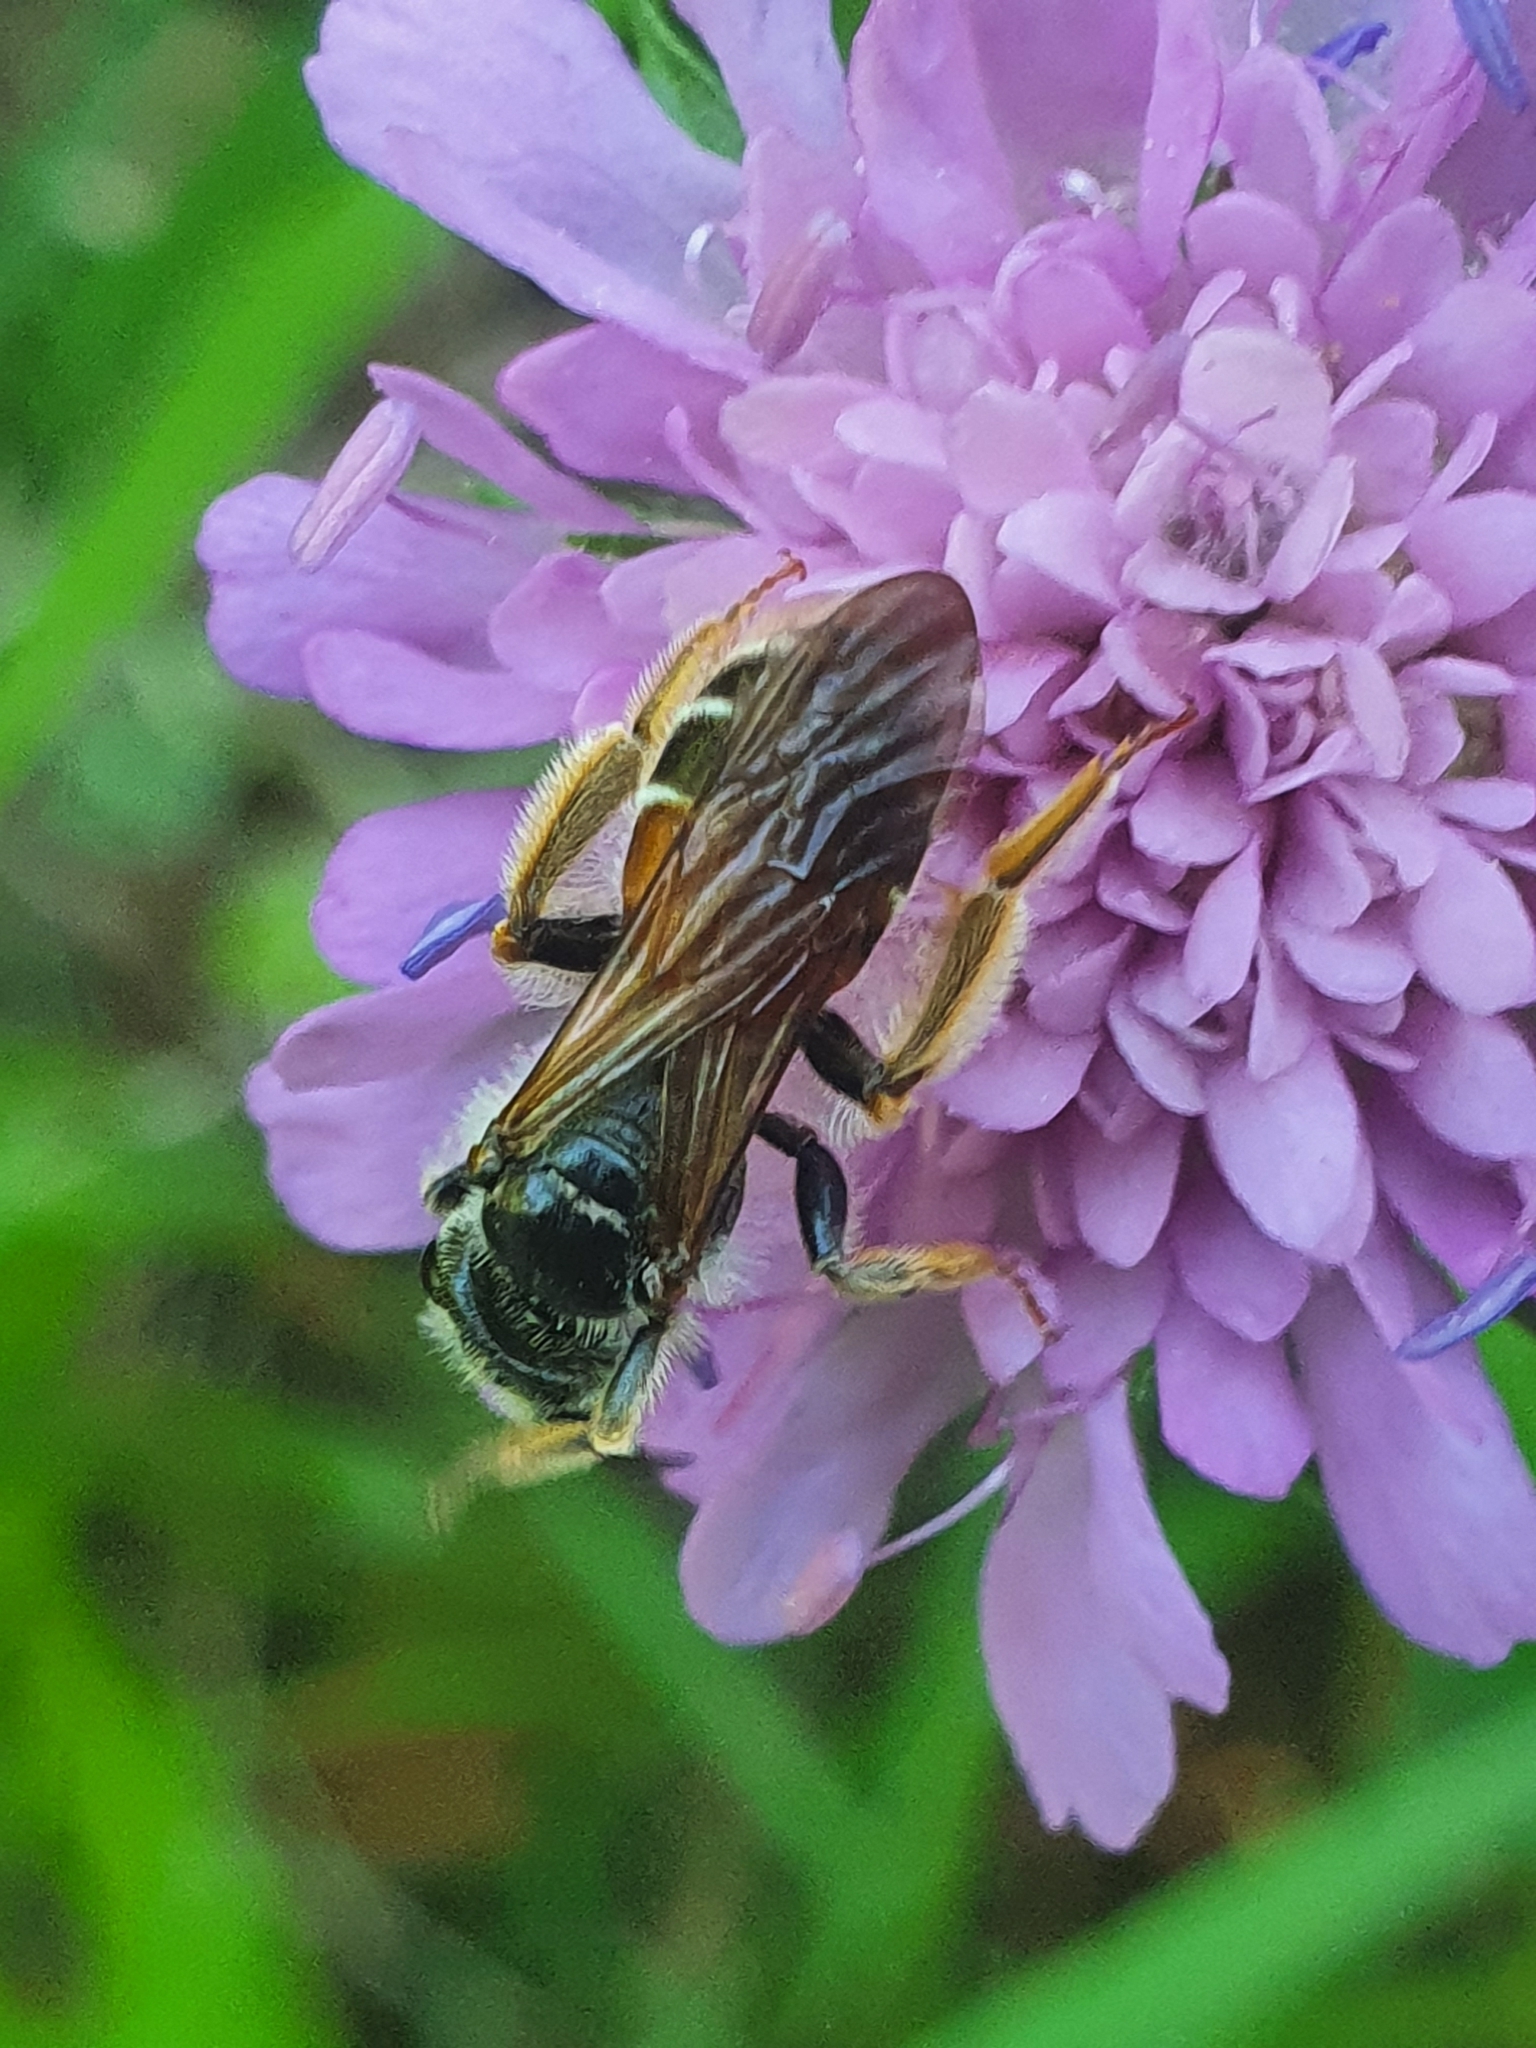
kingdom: Animalia
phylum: Arthropoda
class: Insecta
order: Hymenoptera
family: Andrenidae
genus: Andrena
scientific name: Andrena hattorfiana
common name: Large scabious mining bee
